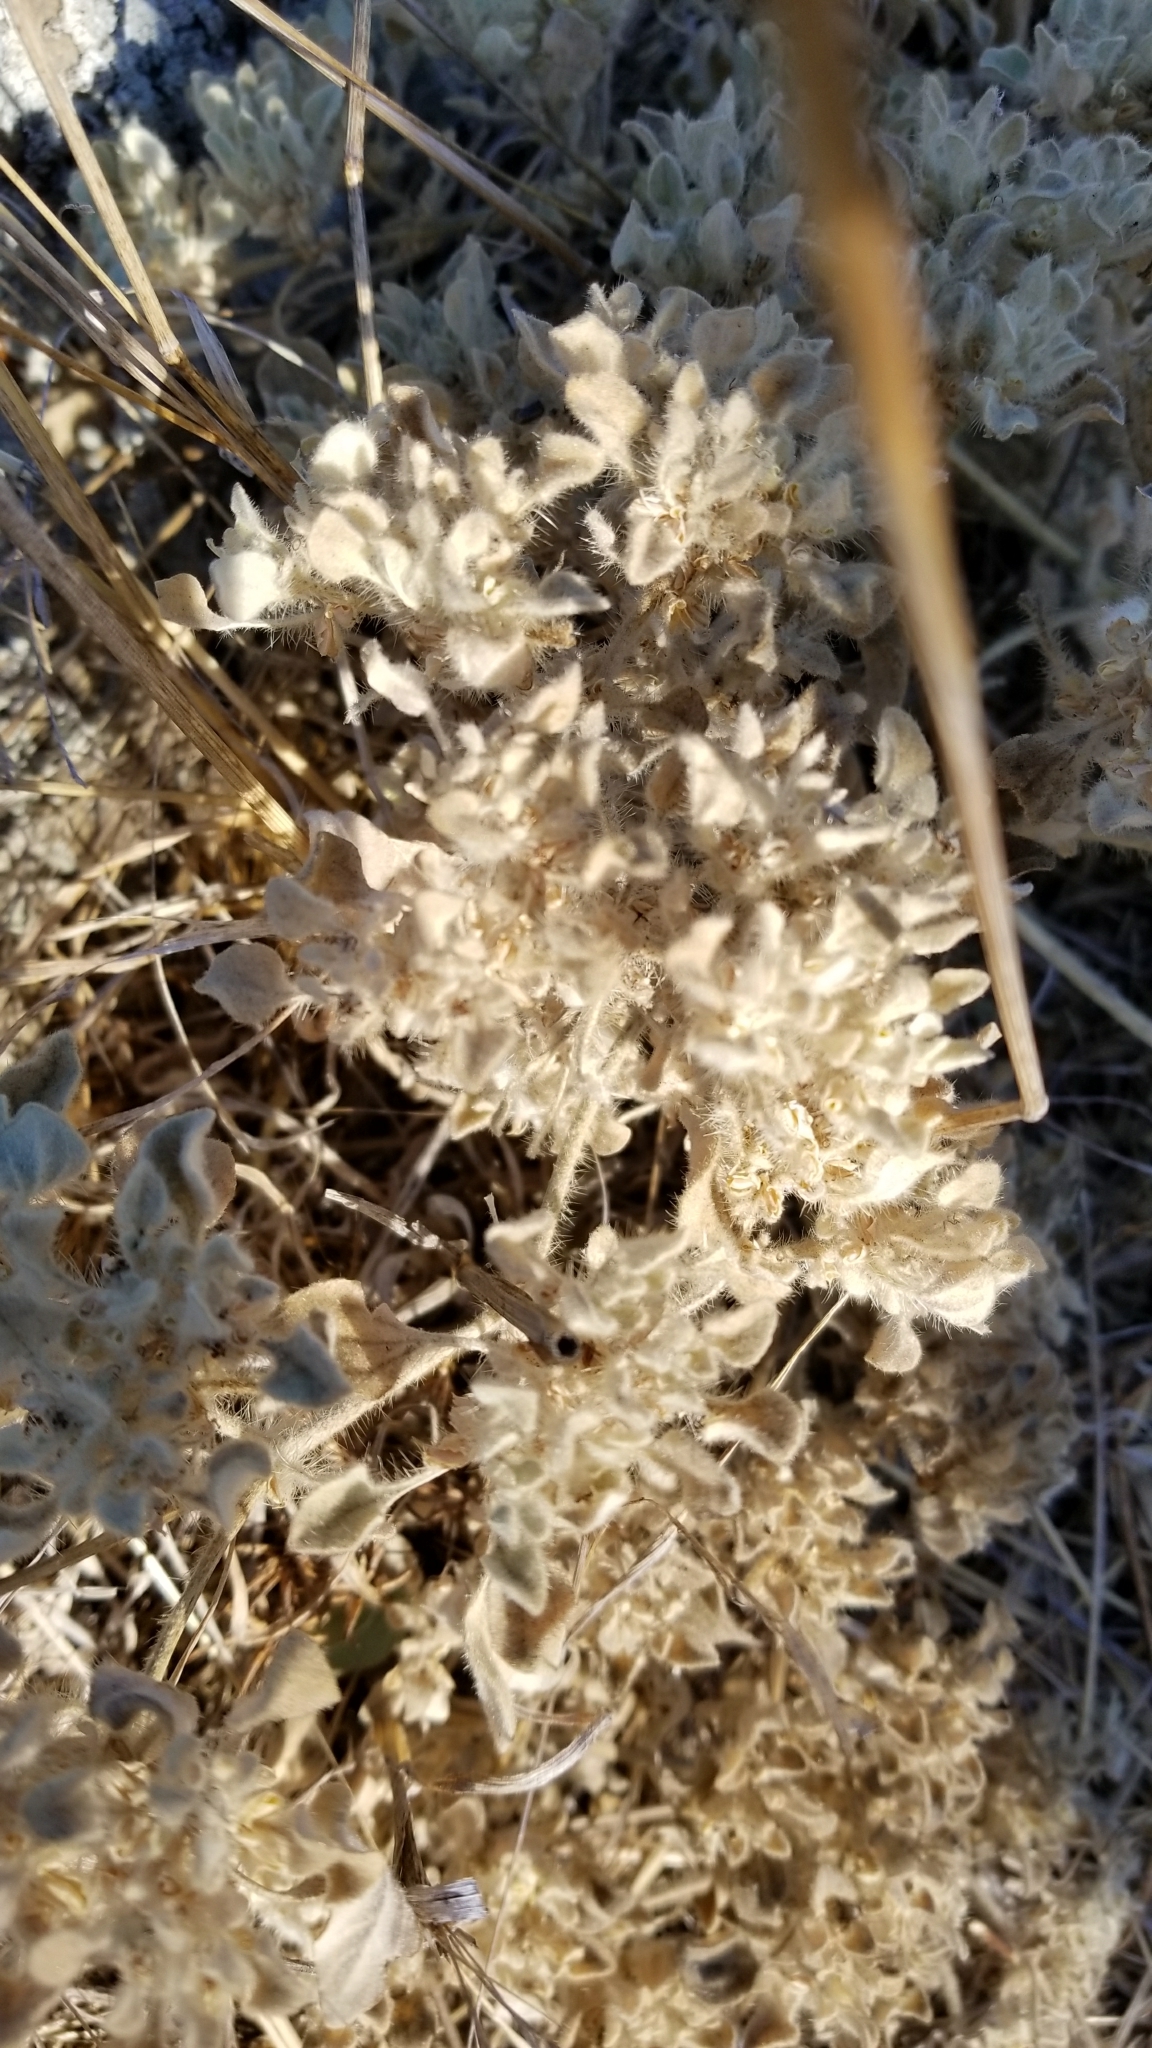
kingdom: Plantae
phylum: Tracheophyta
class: Magnoliopsida
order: Malpighiales
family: Euphorbiaceae
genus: Croton
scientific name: Croton setiger
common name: Dove weed
